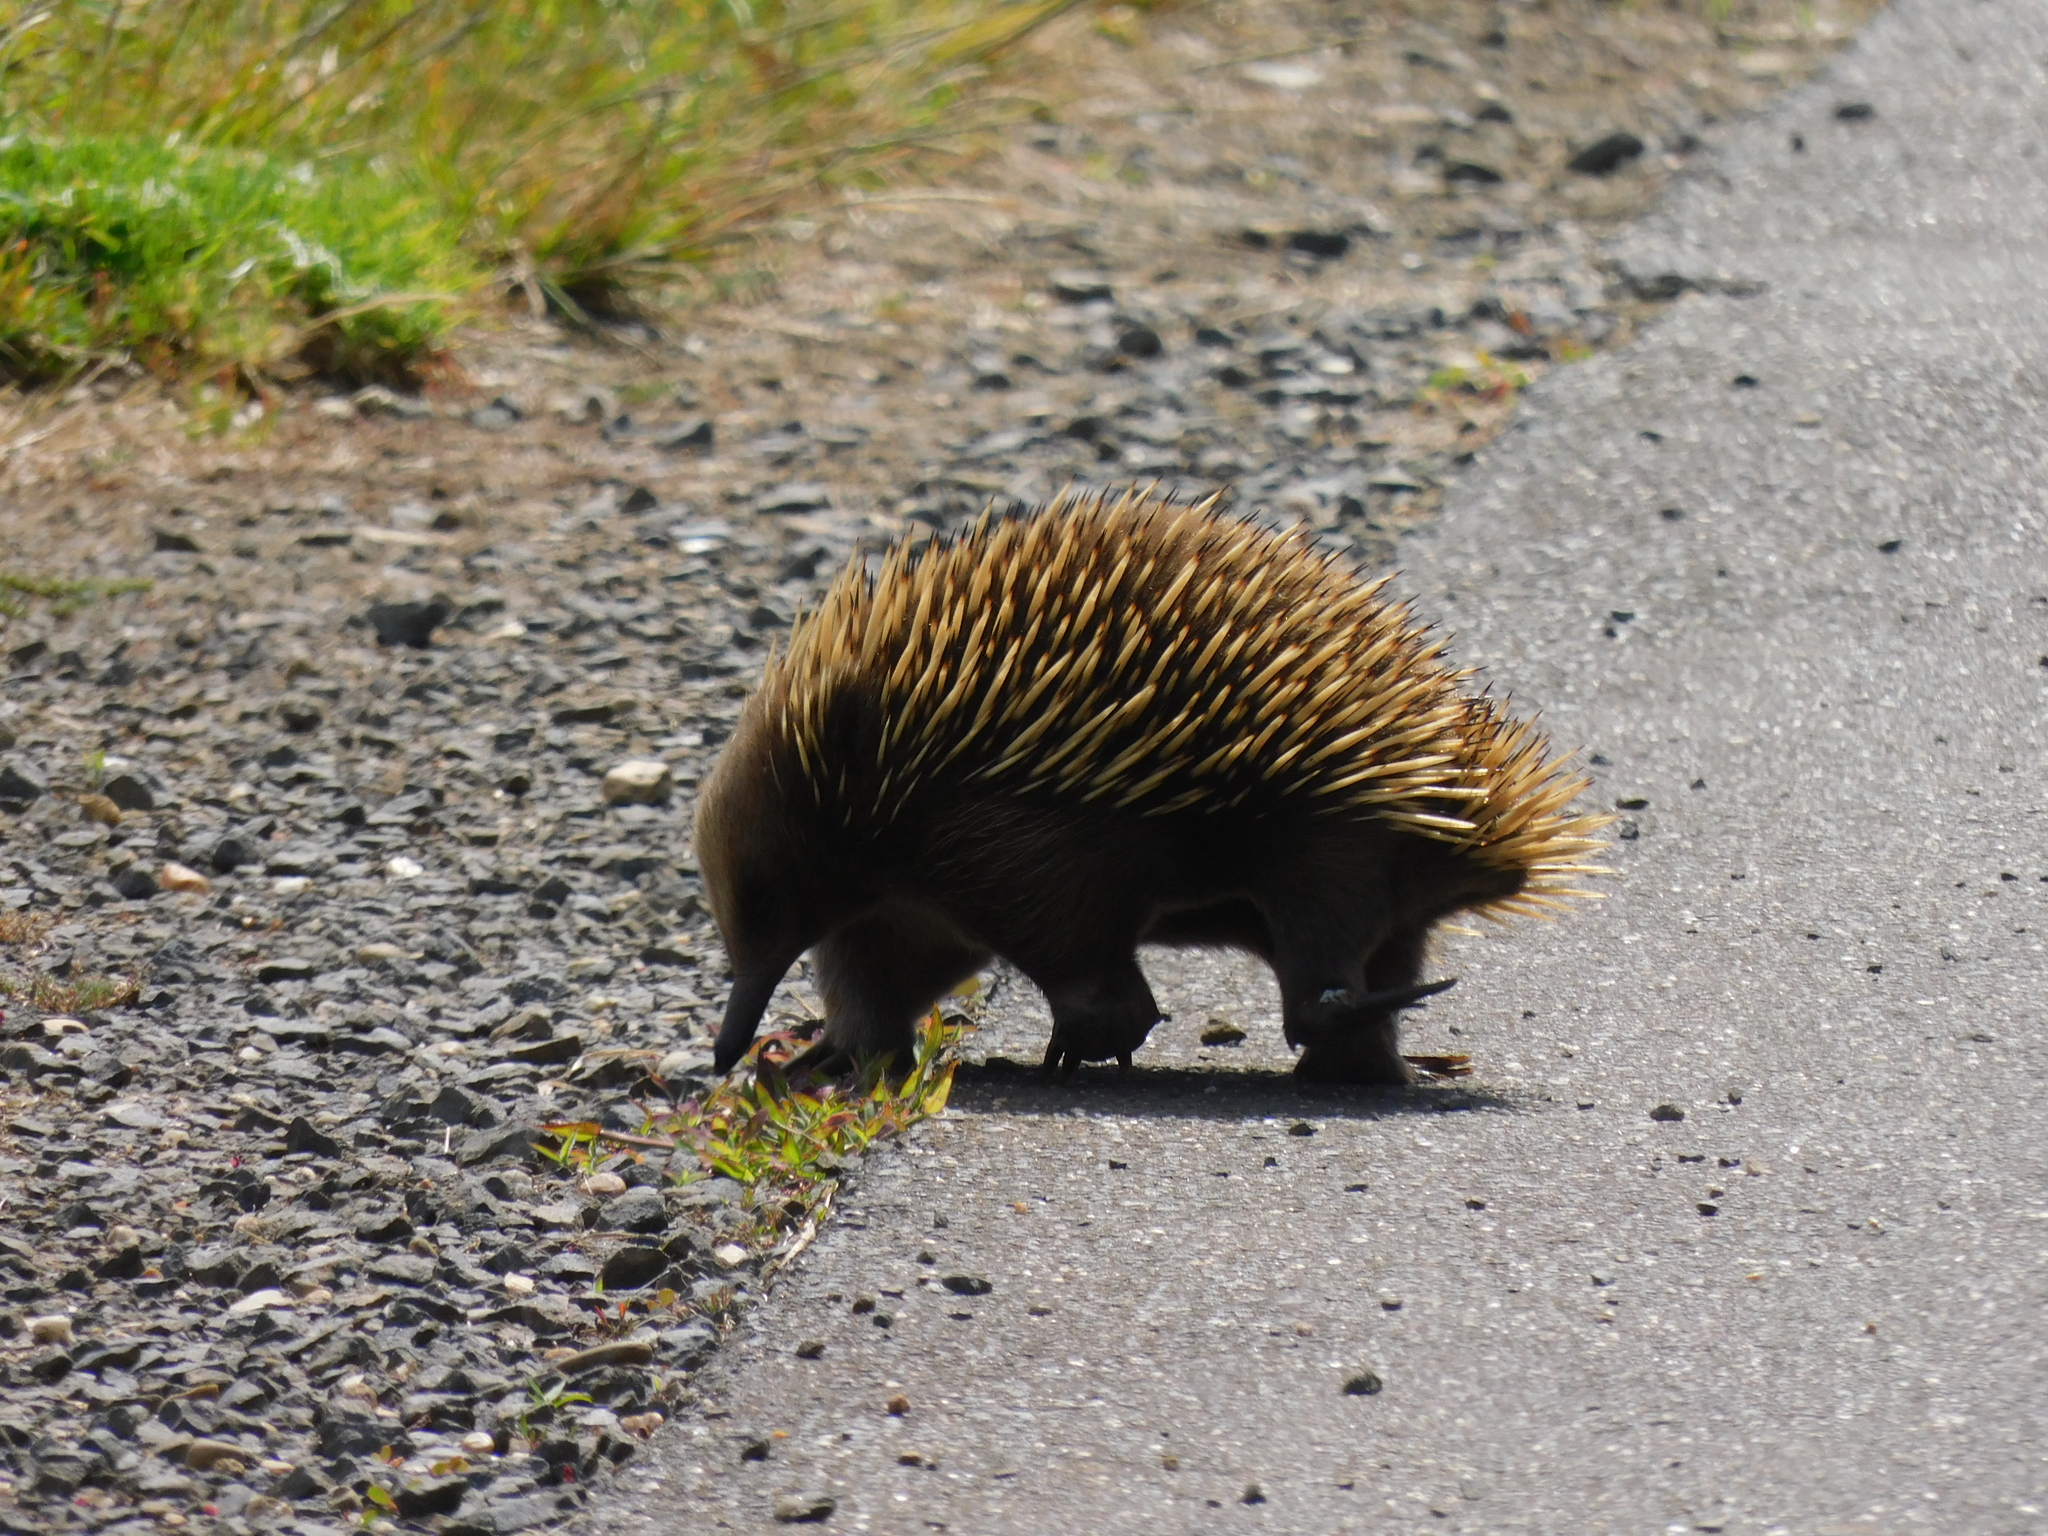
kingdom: Animalia
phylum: Chordata
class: Mammalia
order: Monotremata
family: Tachyglossidae
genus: Tachyglossus
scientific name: Tachyglossus aculeatus
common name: Short-beaked echidna
